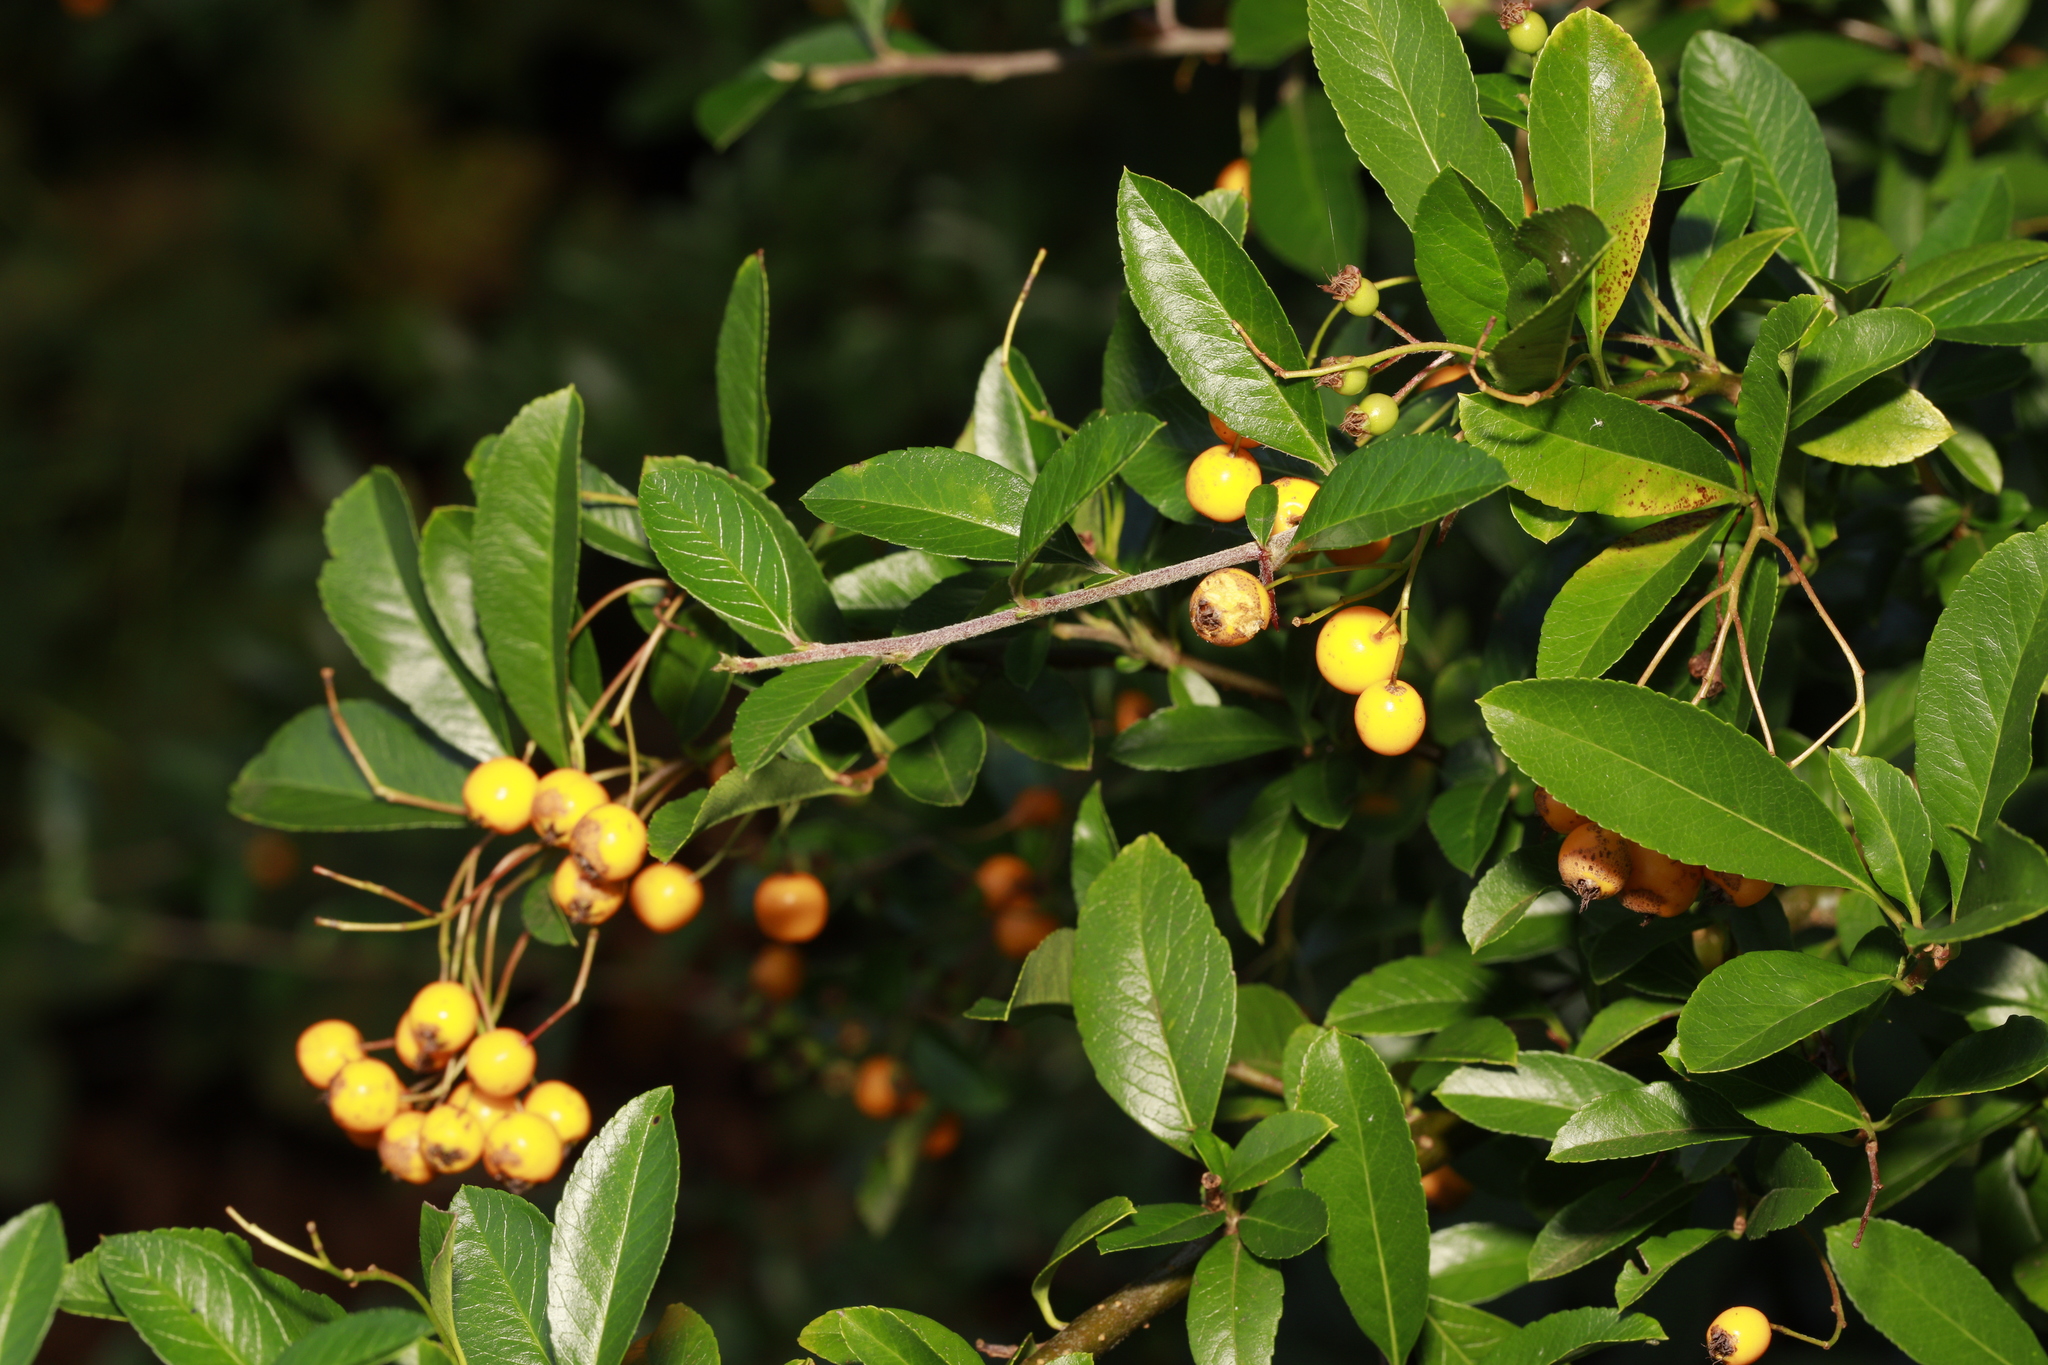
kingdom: Plantae
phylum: Tracheophyta
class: Magnoliopsida
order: Rosales
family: Rosaceae
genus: Pyracantha
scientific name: Pyracantha coccinea
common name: Firethorn
